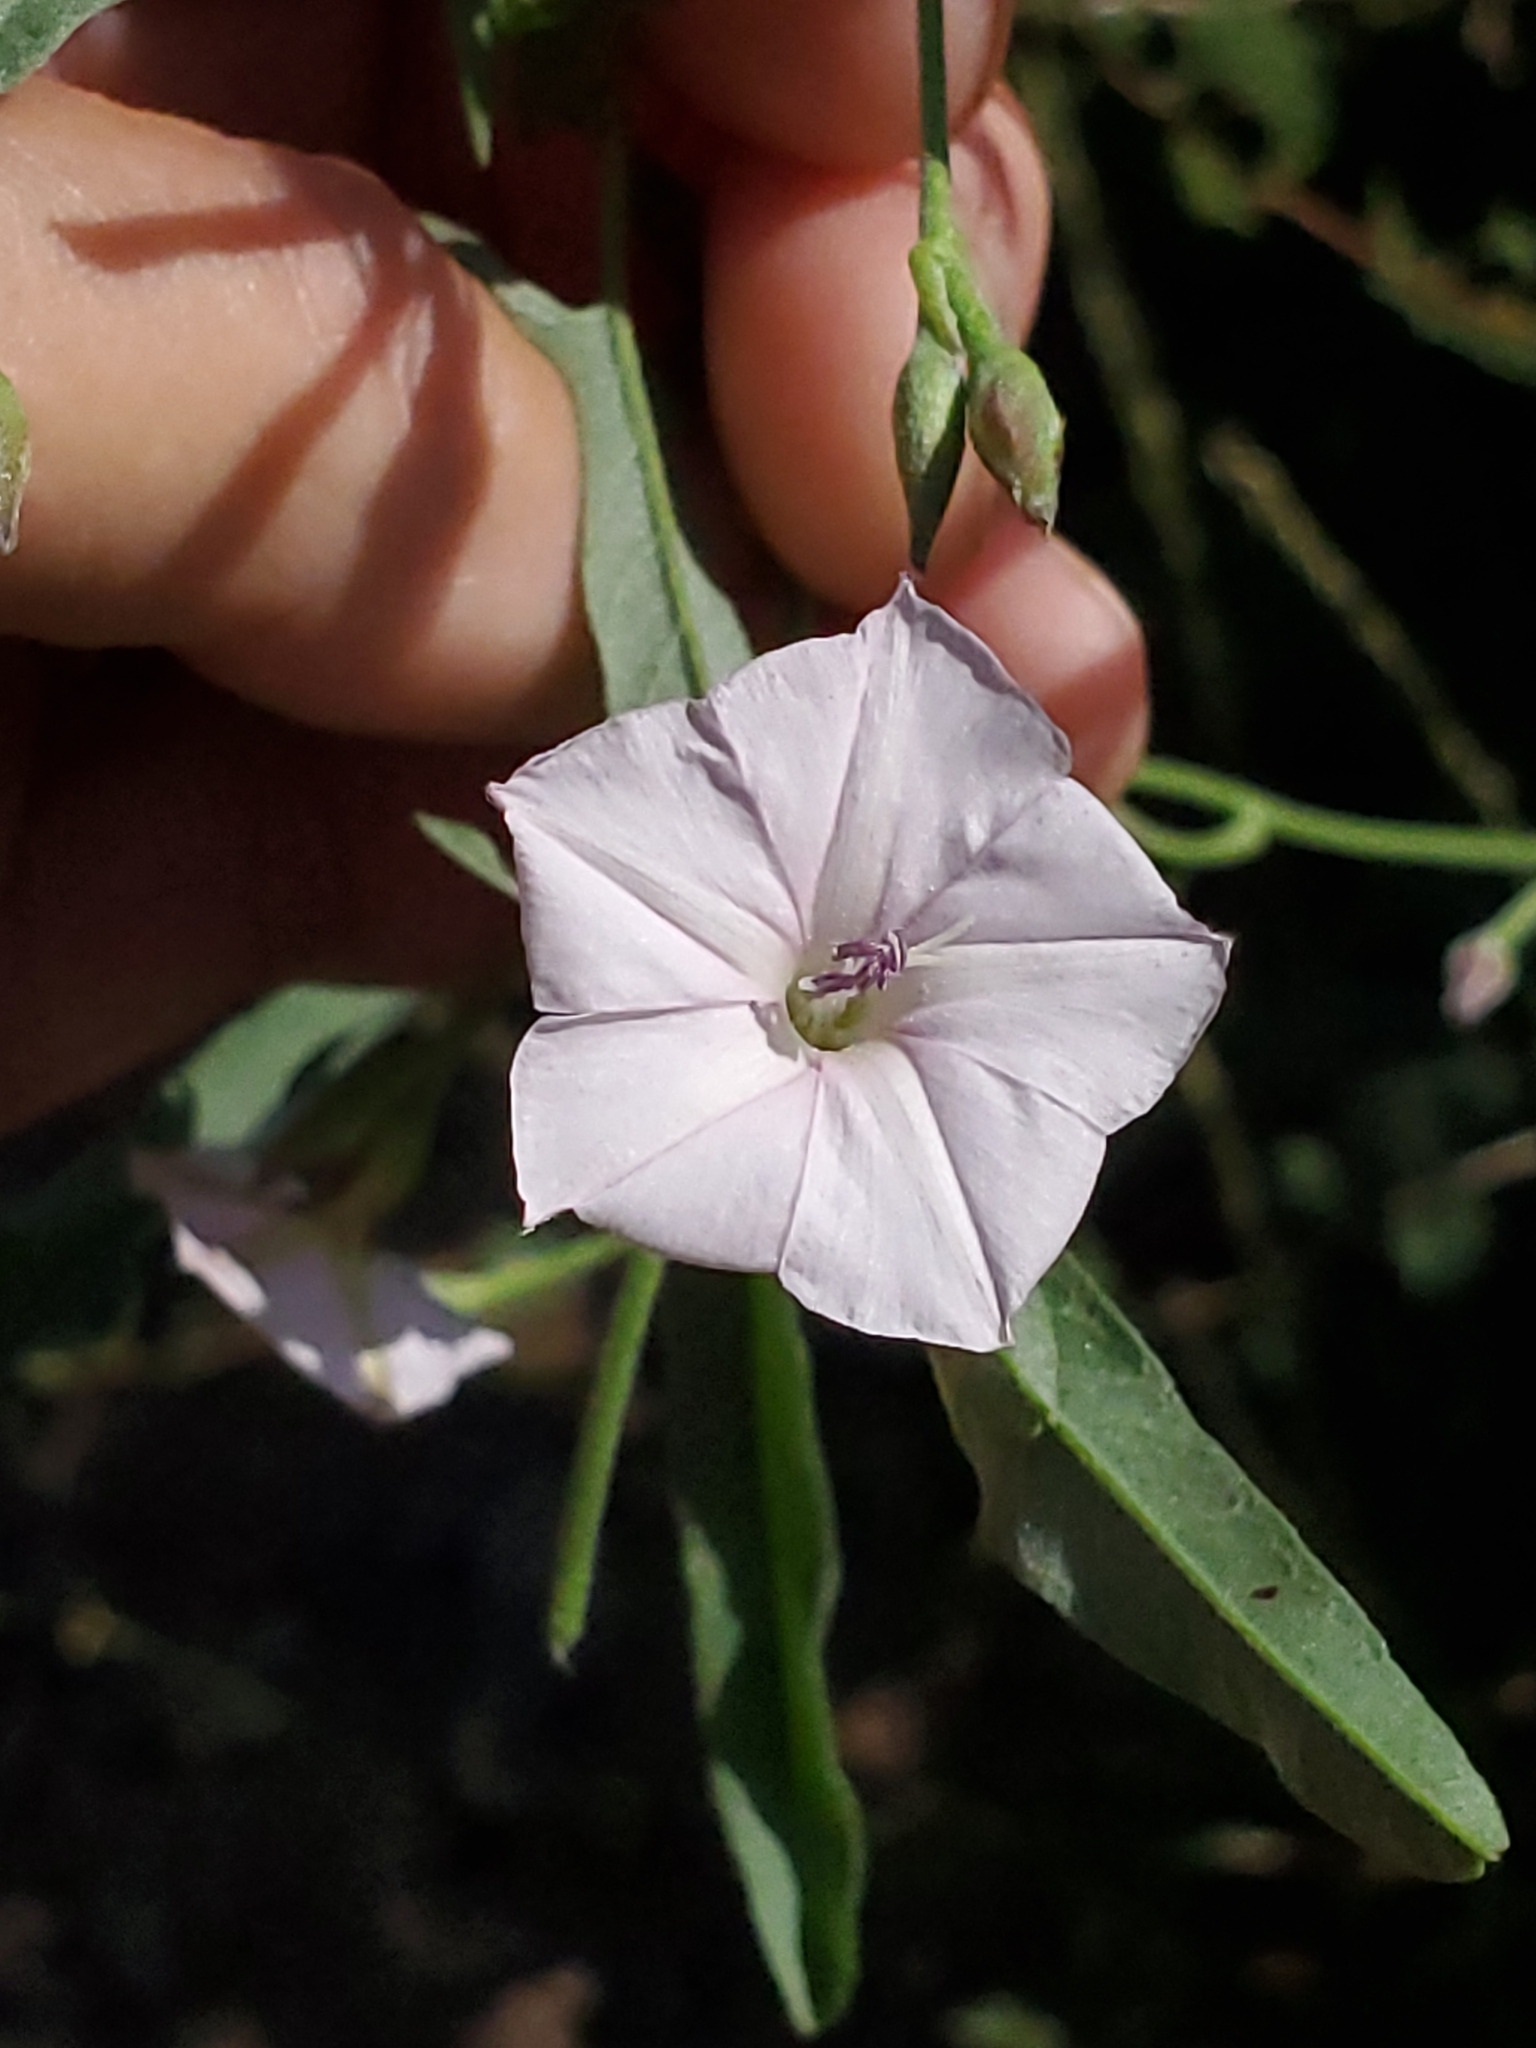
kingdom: Plantae
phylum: Tracheophyta
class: Magnoliopsida
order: Solanales
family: Convolvulaceae
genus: Convolvulus
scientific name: Convolvulus equitans
